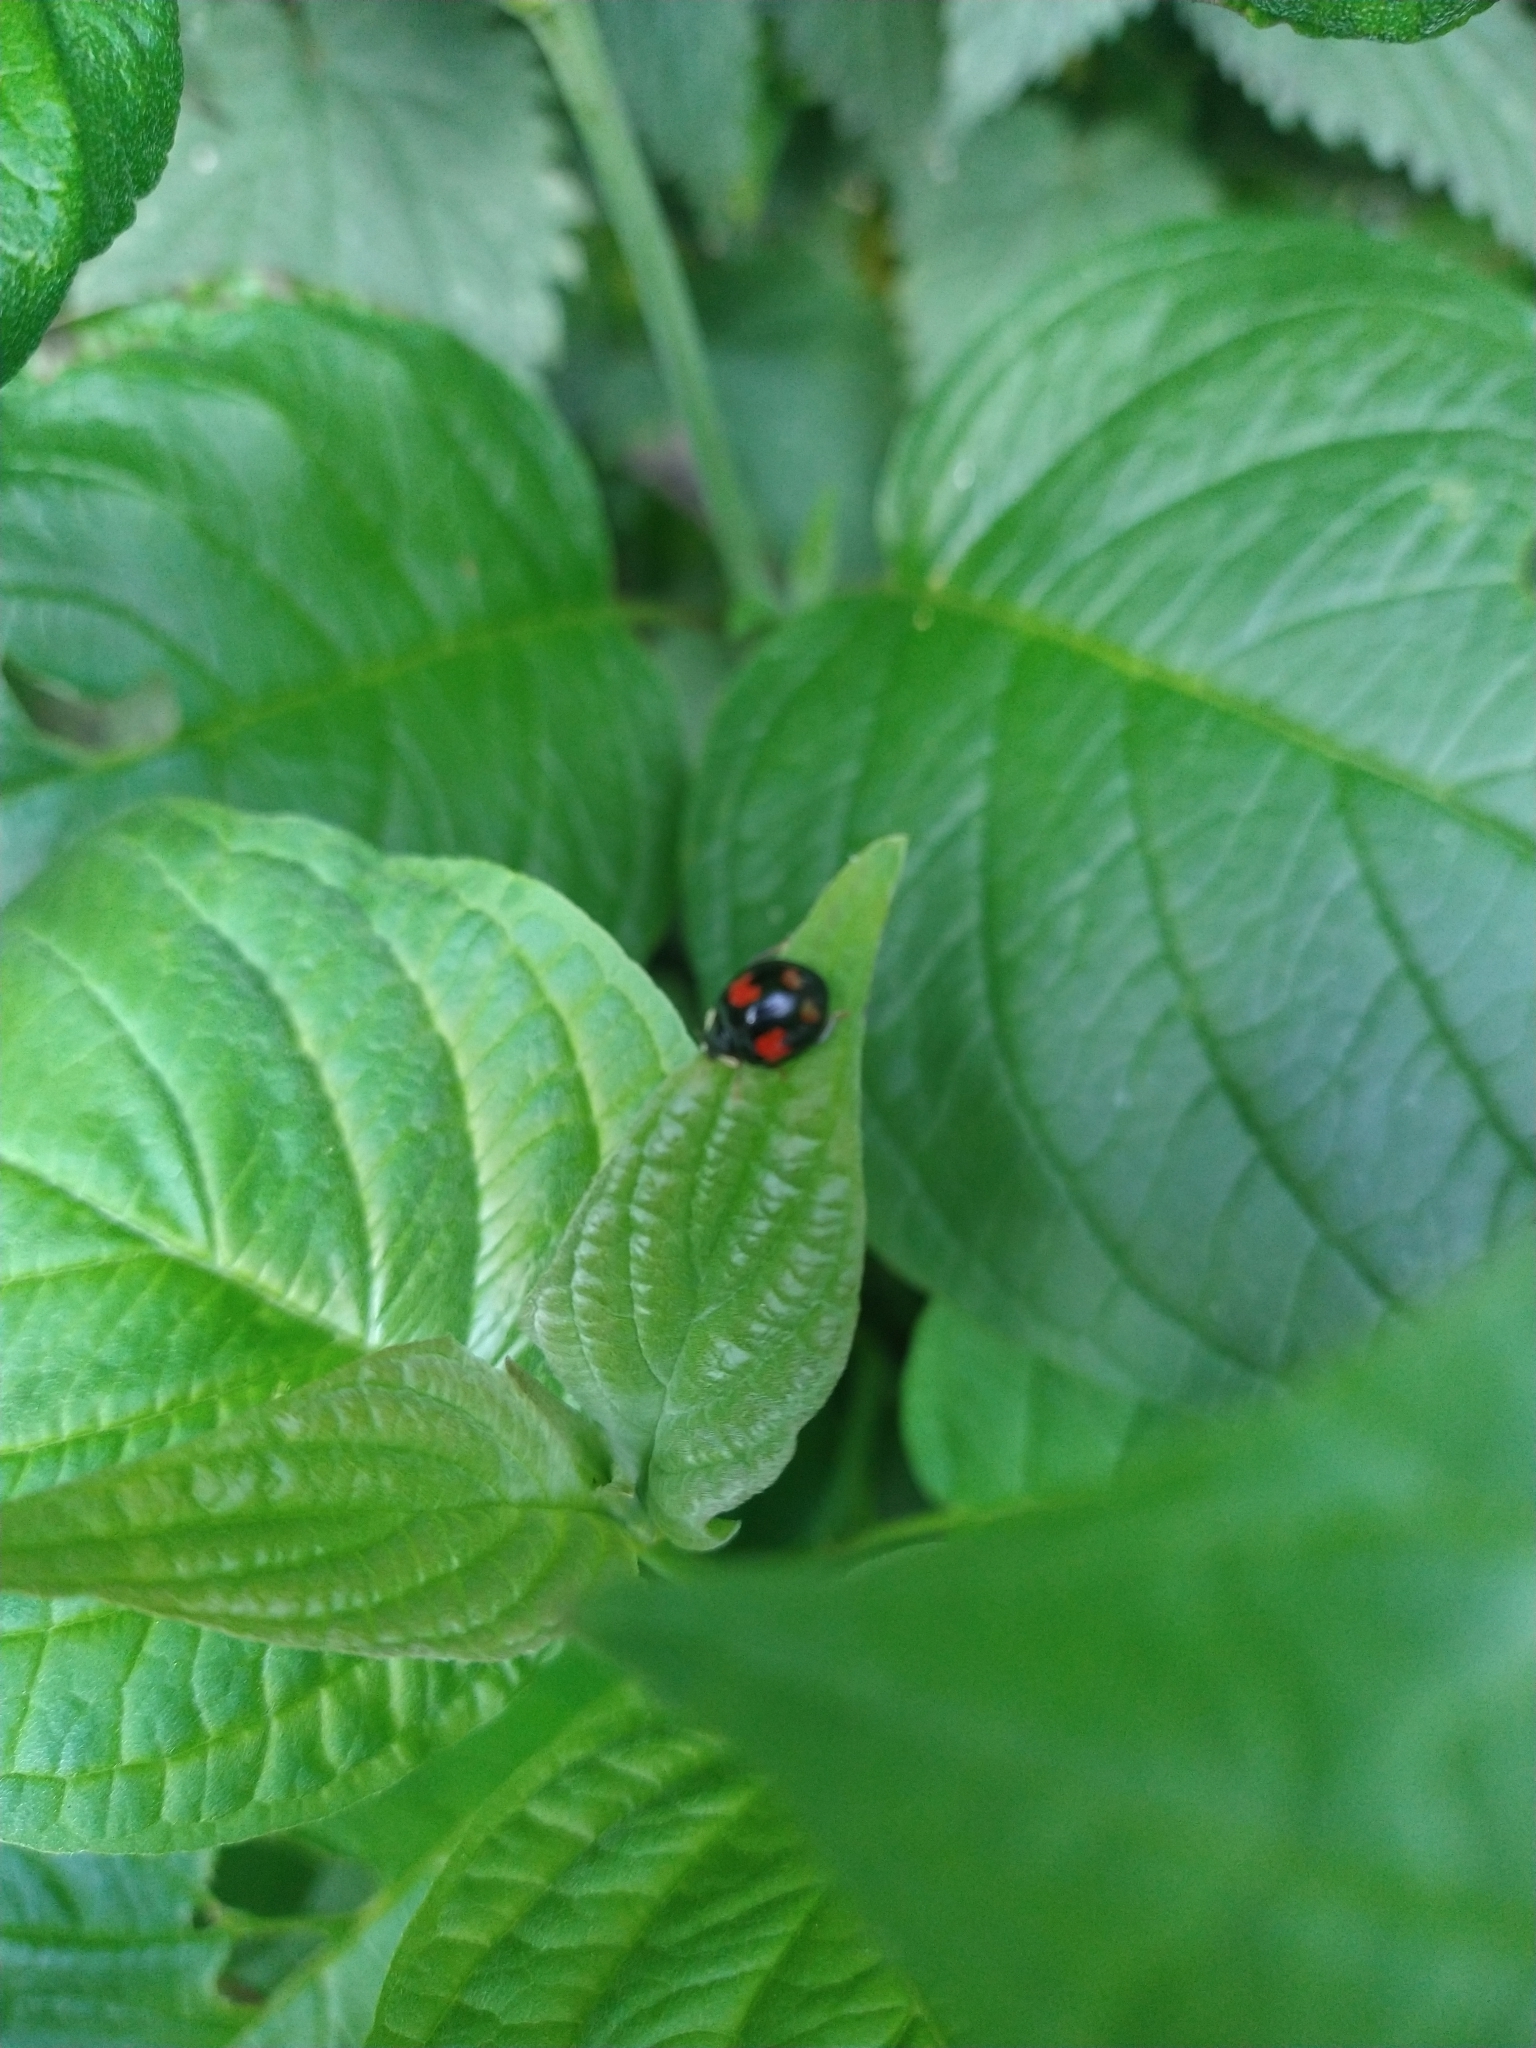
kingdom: Animalia
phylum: Arthropoda
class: Insecta
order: Coleoptera
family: Coccinellidae
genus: Harmonia
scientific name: Harmonia axyridis
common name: Harlequin ladybird
